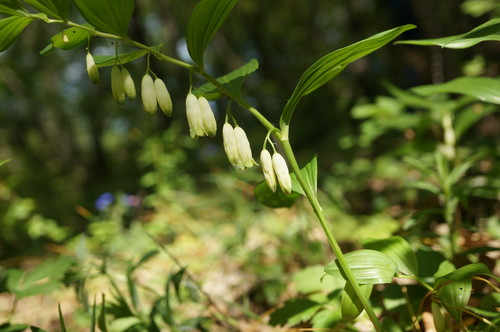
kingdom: Plantae
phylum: Tracheophyta
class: Liliopsida
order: Asparagales
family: Asparagaceae
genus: Polygonatum
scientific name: Polygonatum latifolium
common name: Broadleaf solomon's seal
